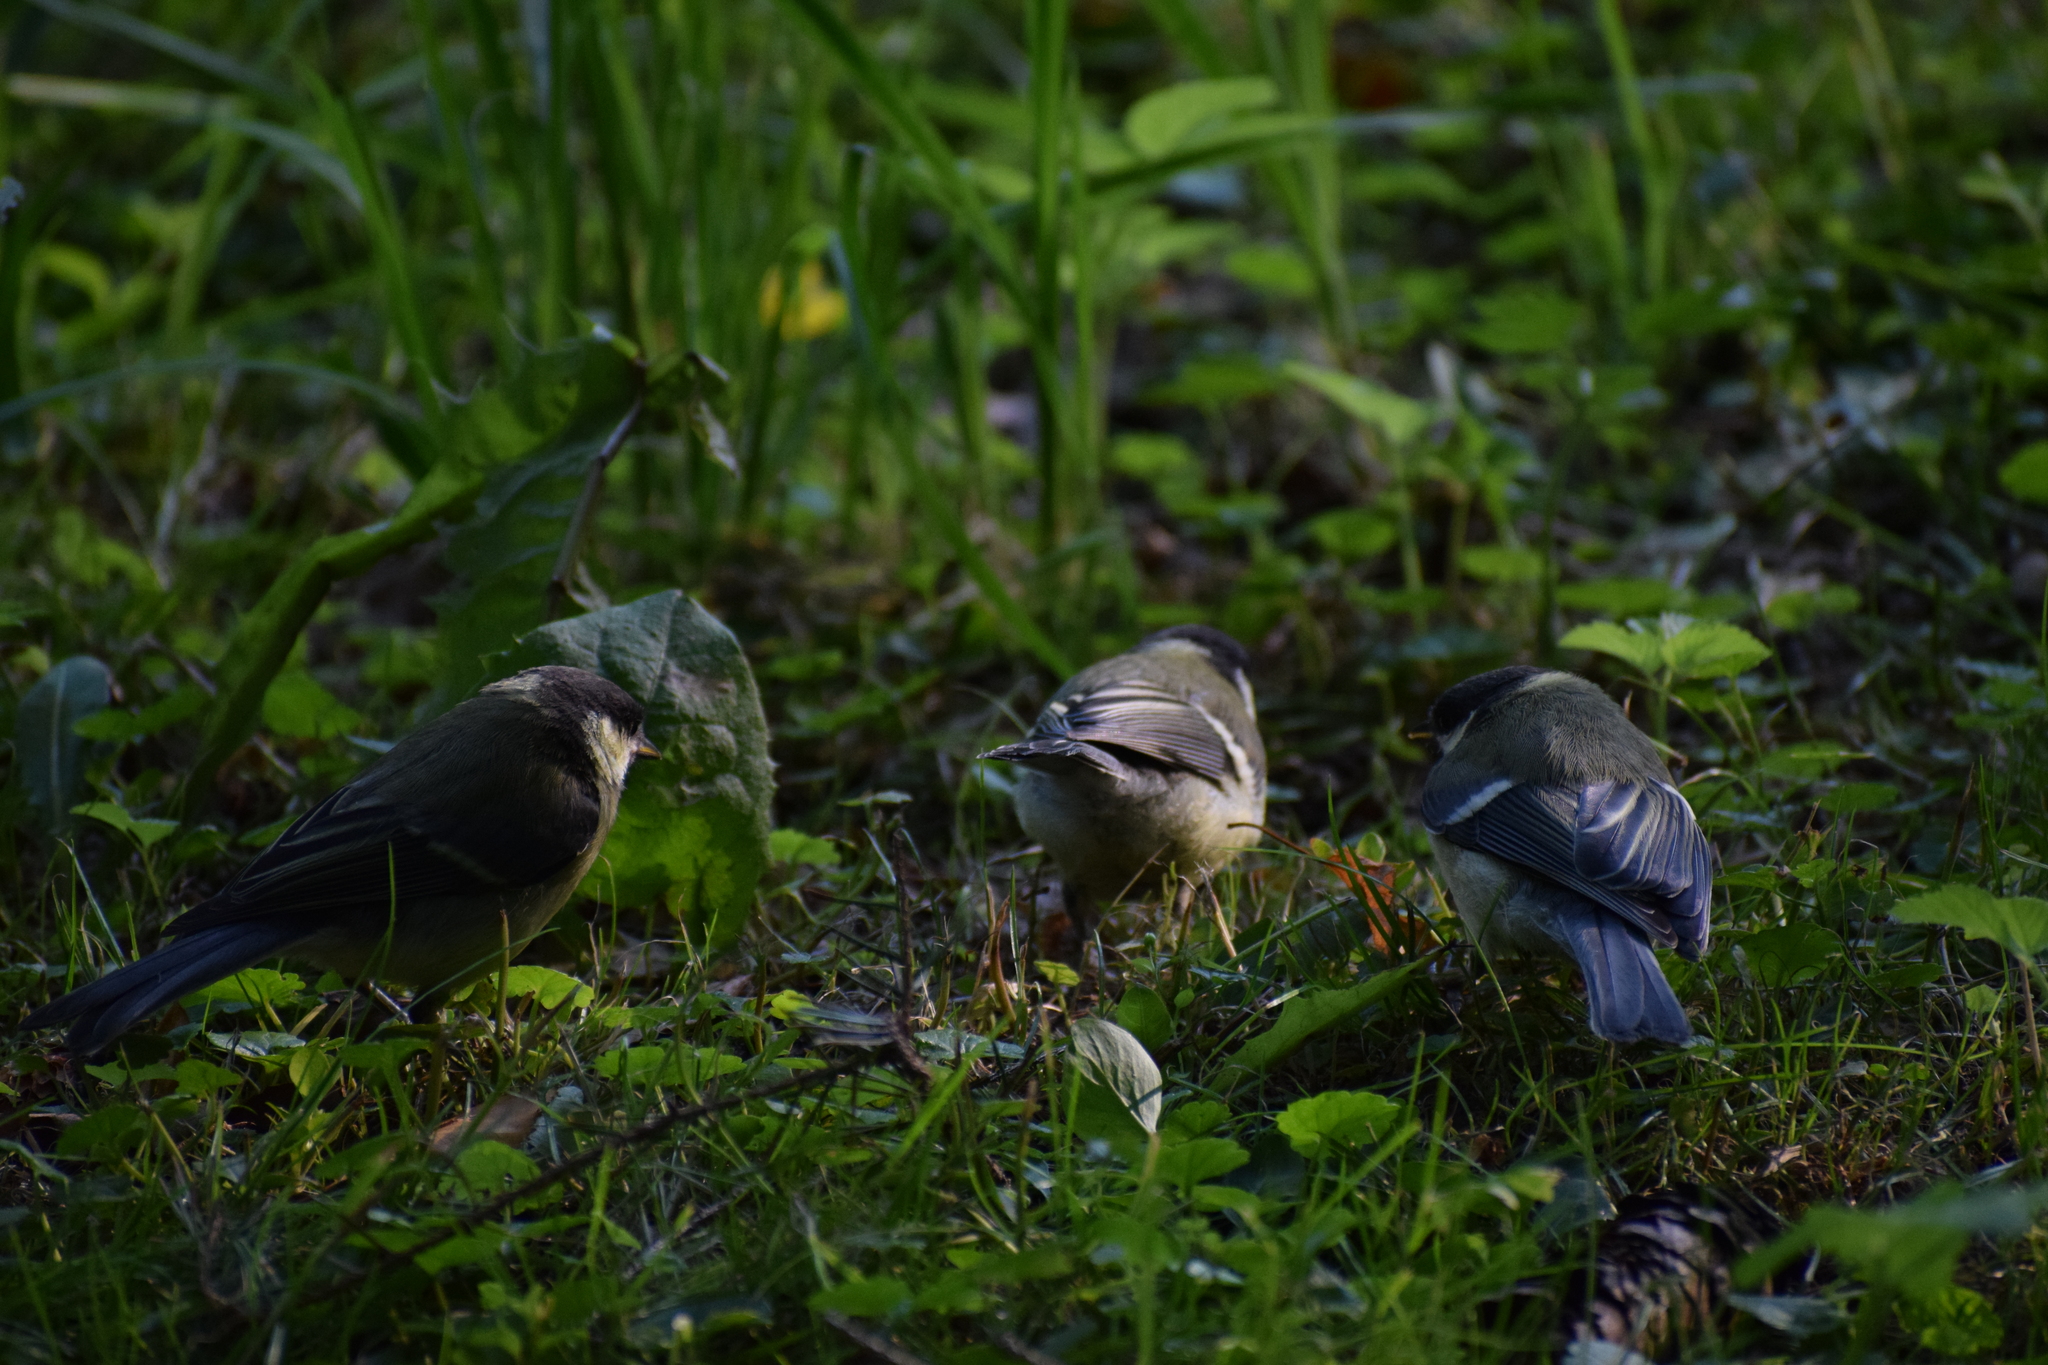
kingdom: Animalia
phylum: Chordata
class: Aves
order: Passeriformes
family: Paridae
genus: Parus
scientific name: Parus major
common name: Great tit
